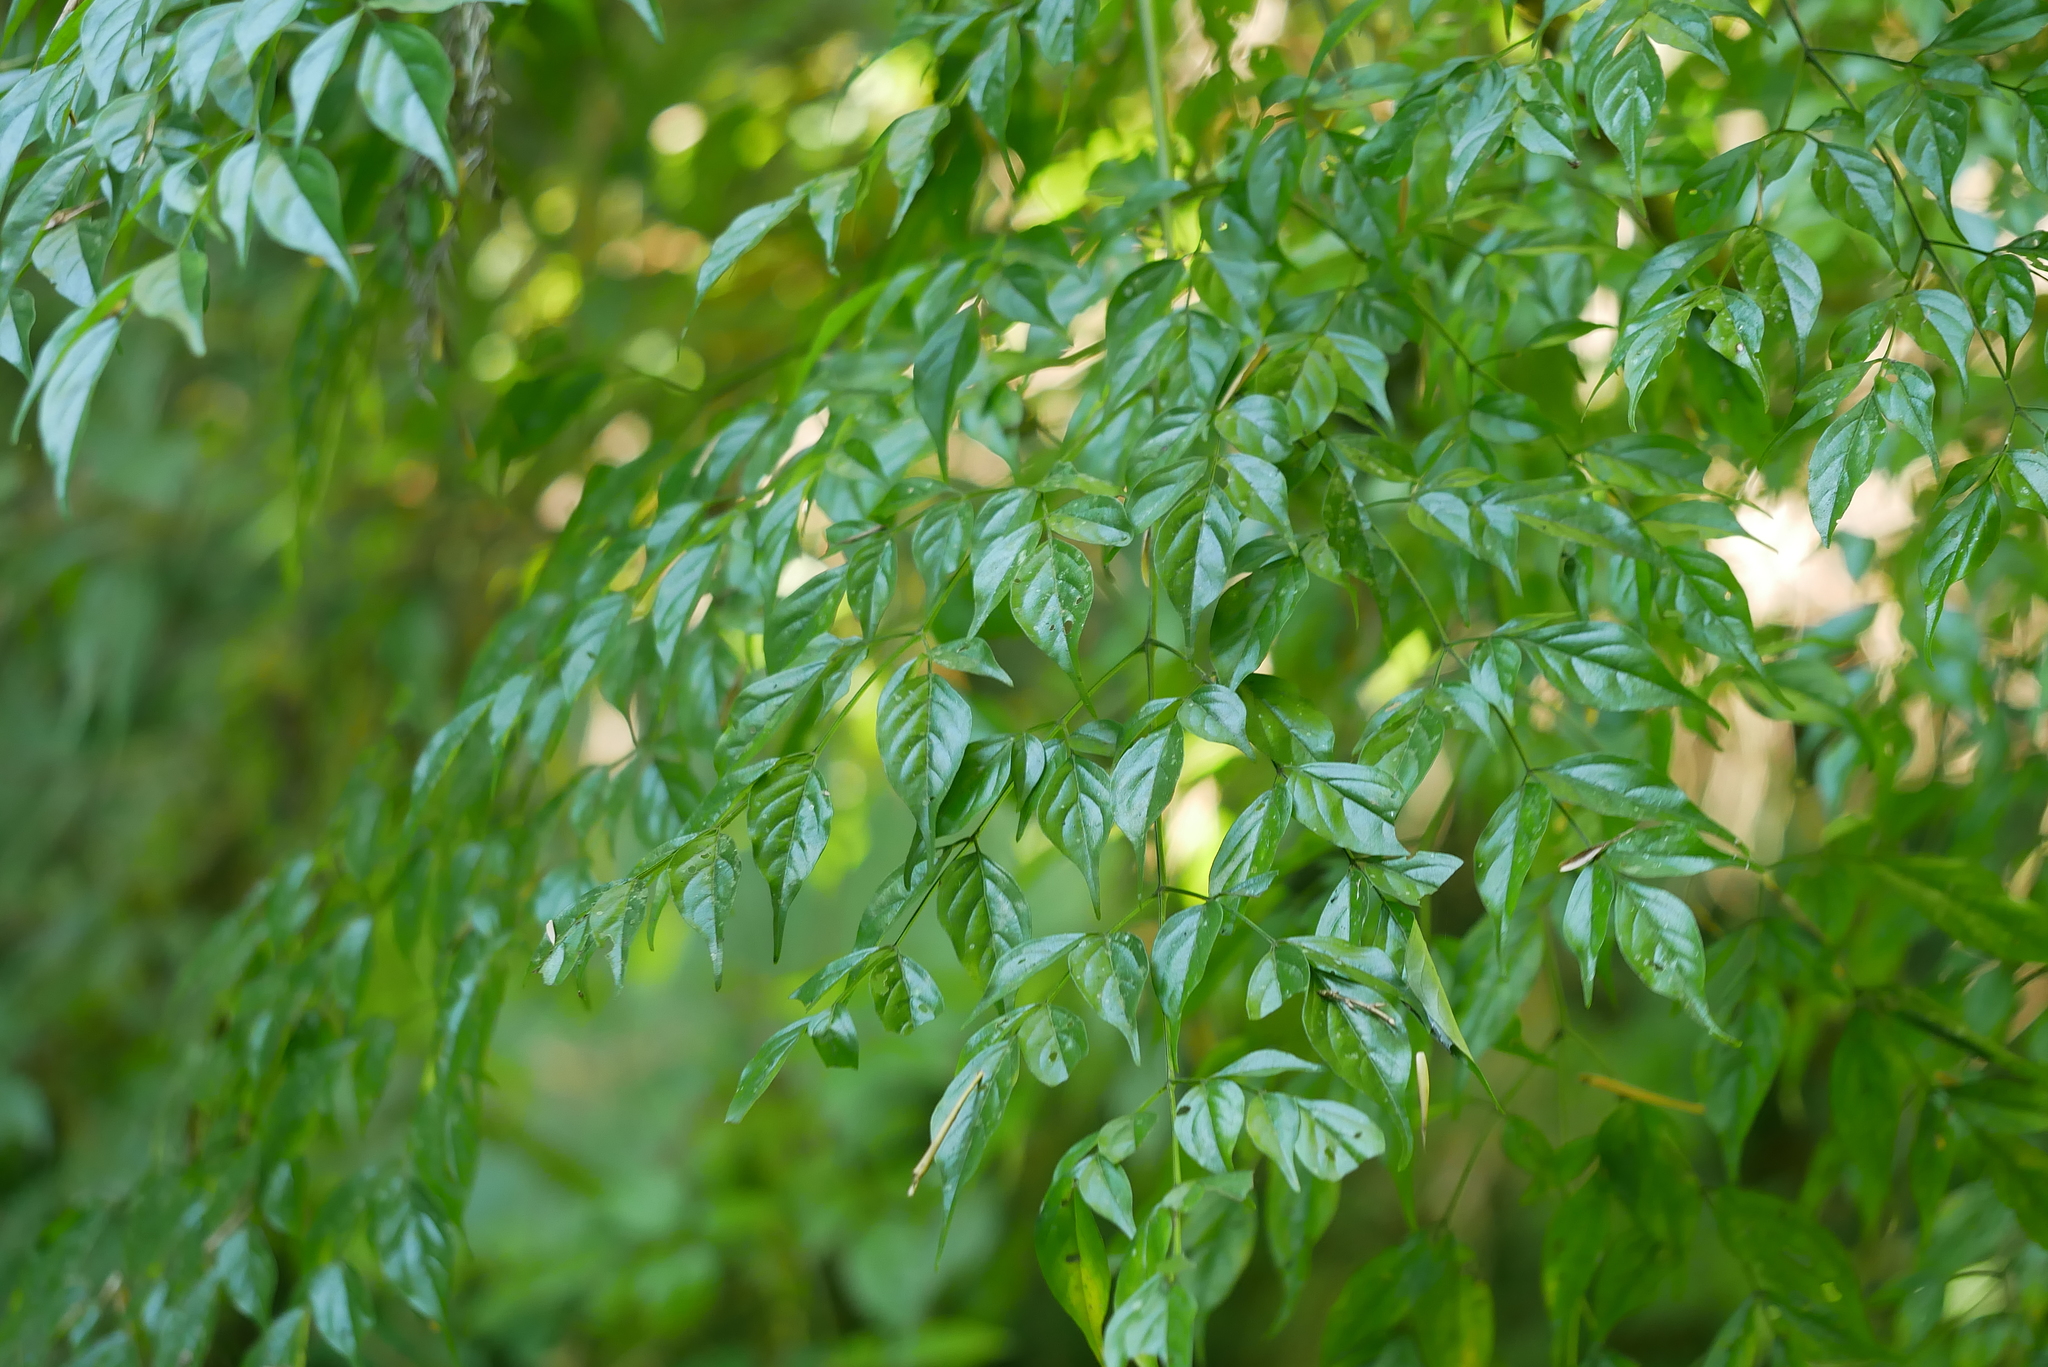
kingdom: Plantae
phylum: Tracheophyta
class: Magnoliopsida
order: Lamiales
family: Bignoniaceae
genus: Radermachera
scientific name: Radermachera sinica
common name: China doll plant
